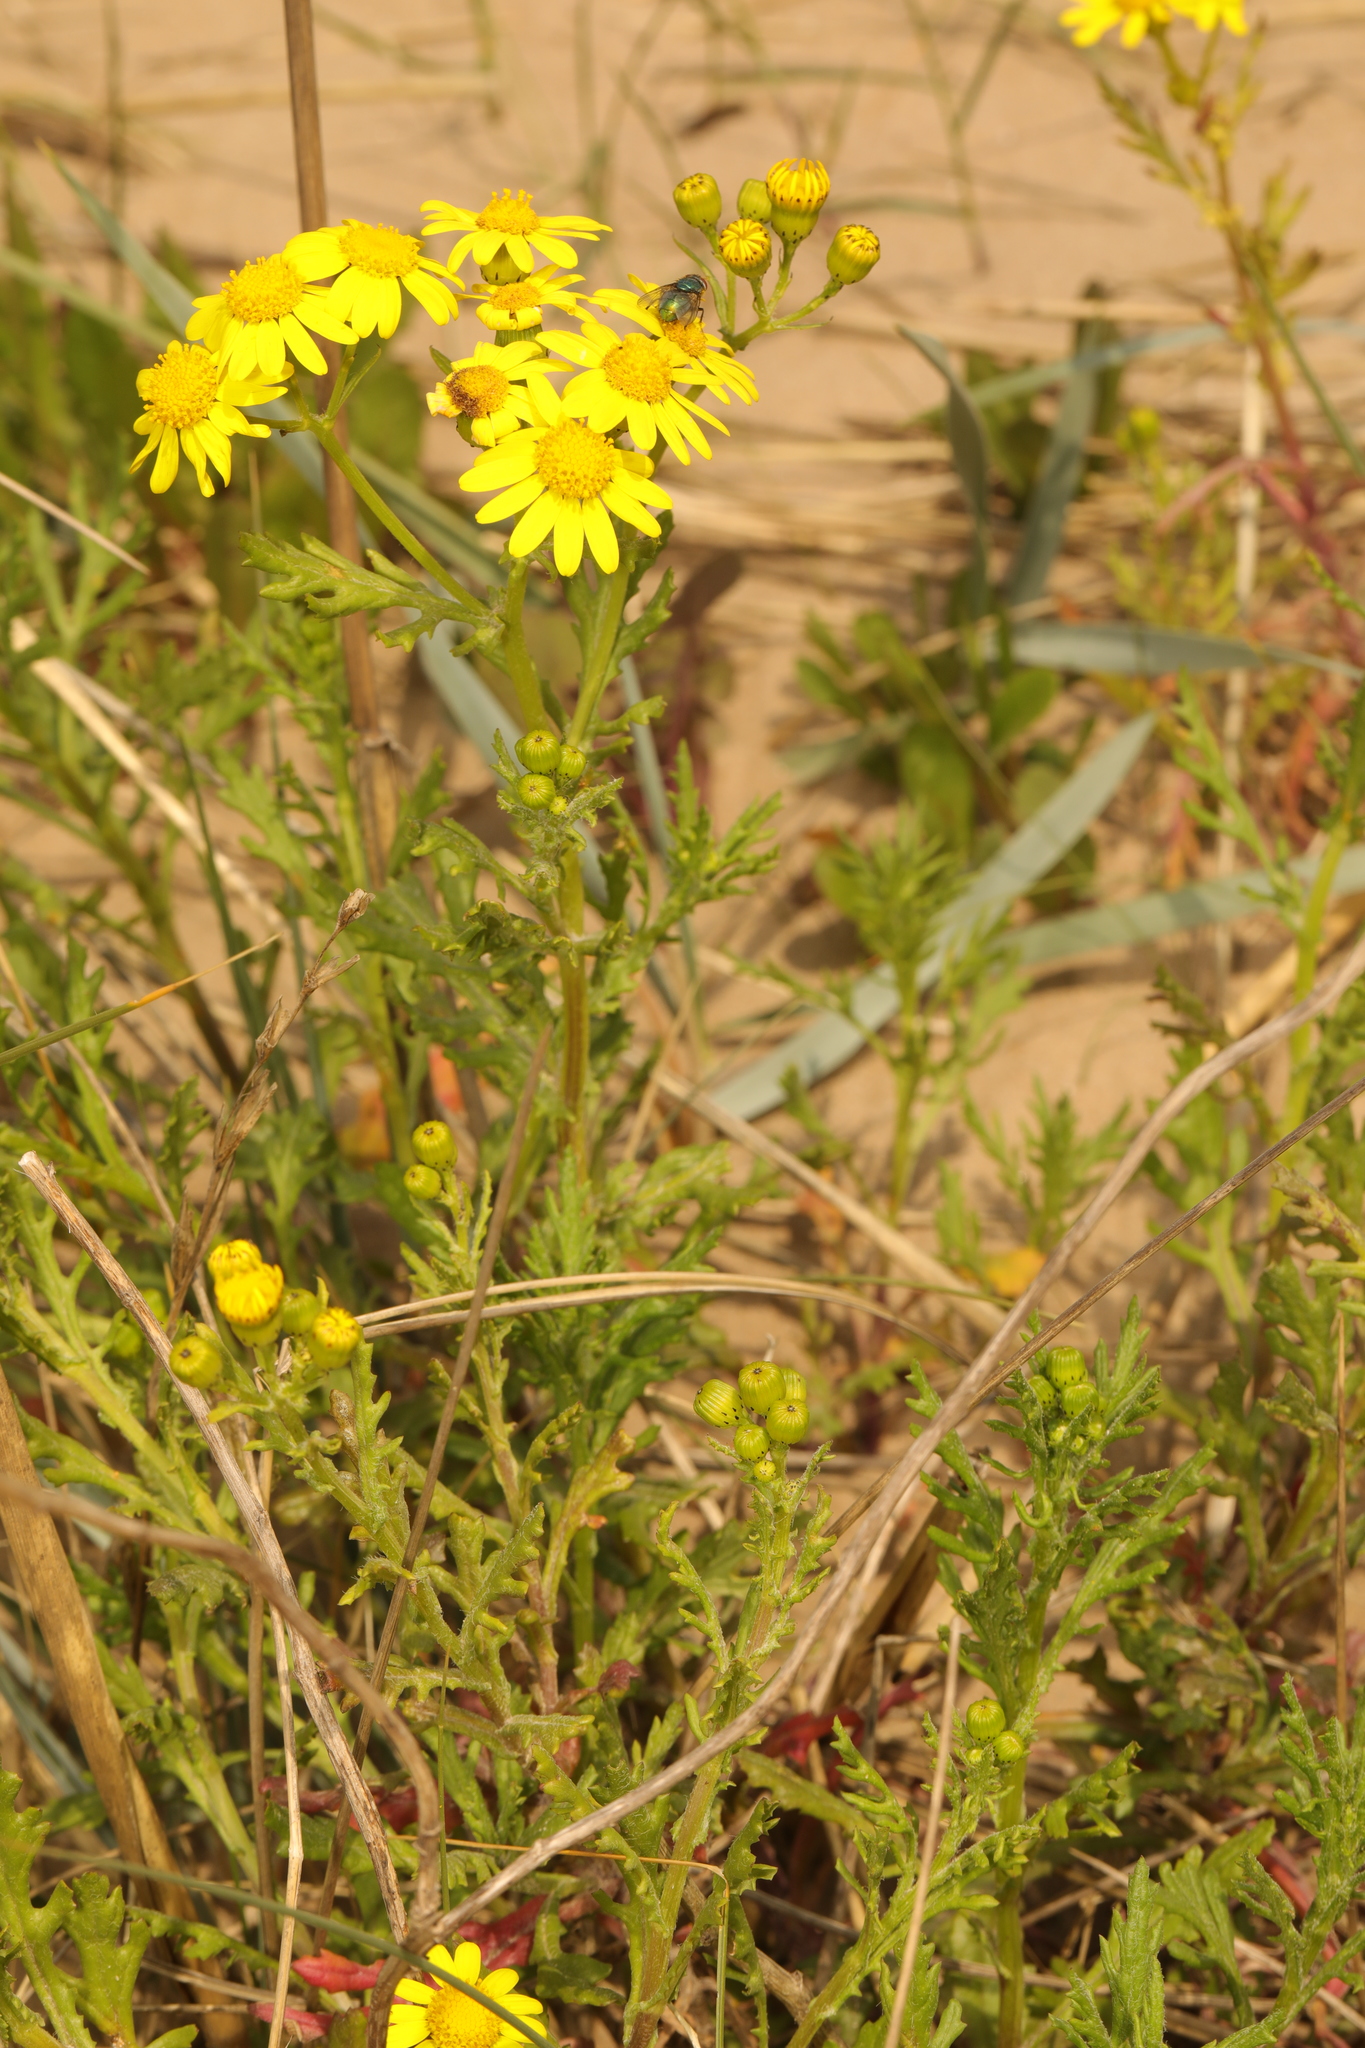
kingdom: Plantae
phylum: Tracheophyta
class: Magnoliopsida
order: Asterales
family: Asteraceae
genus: Senecio
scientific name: Senecio squalidus
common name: Oxford ragwort
